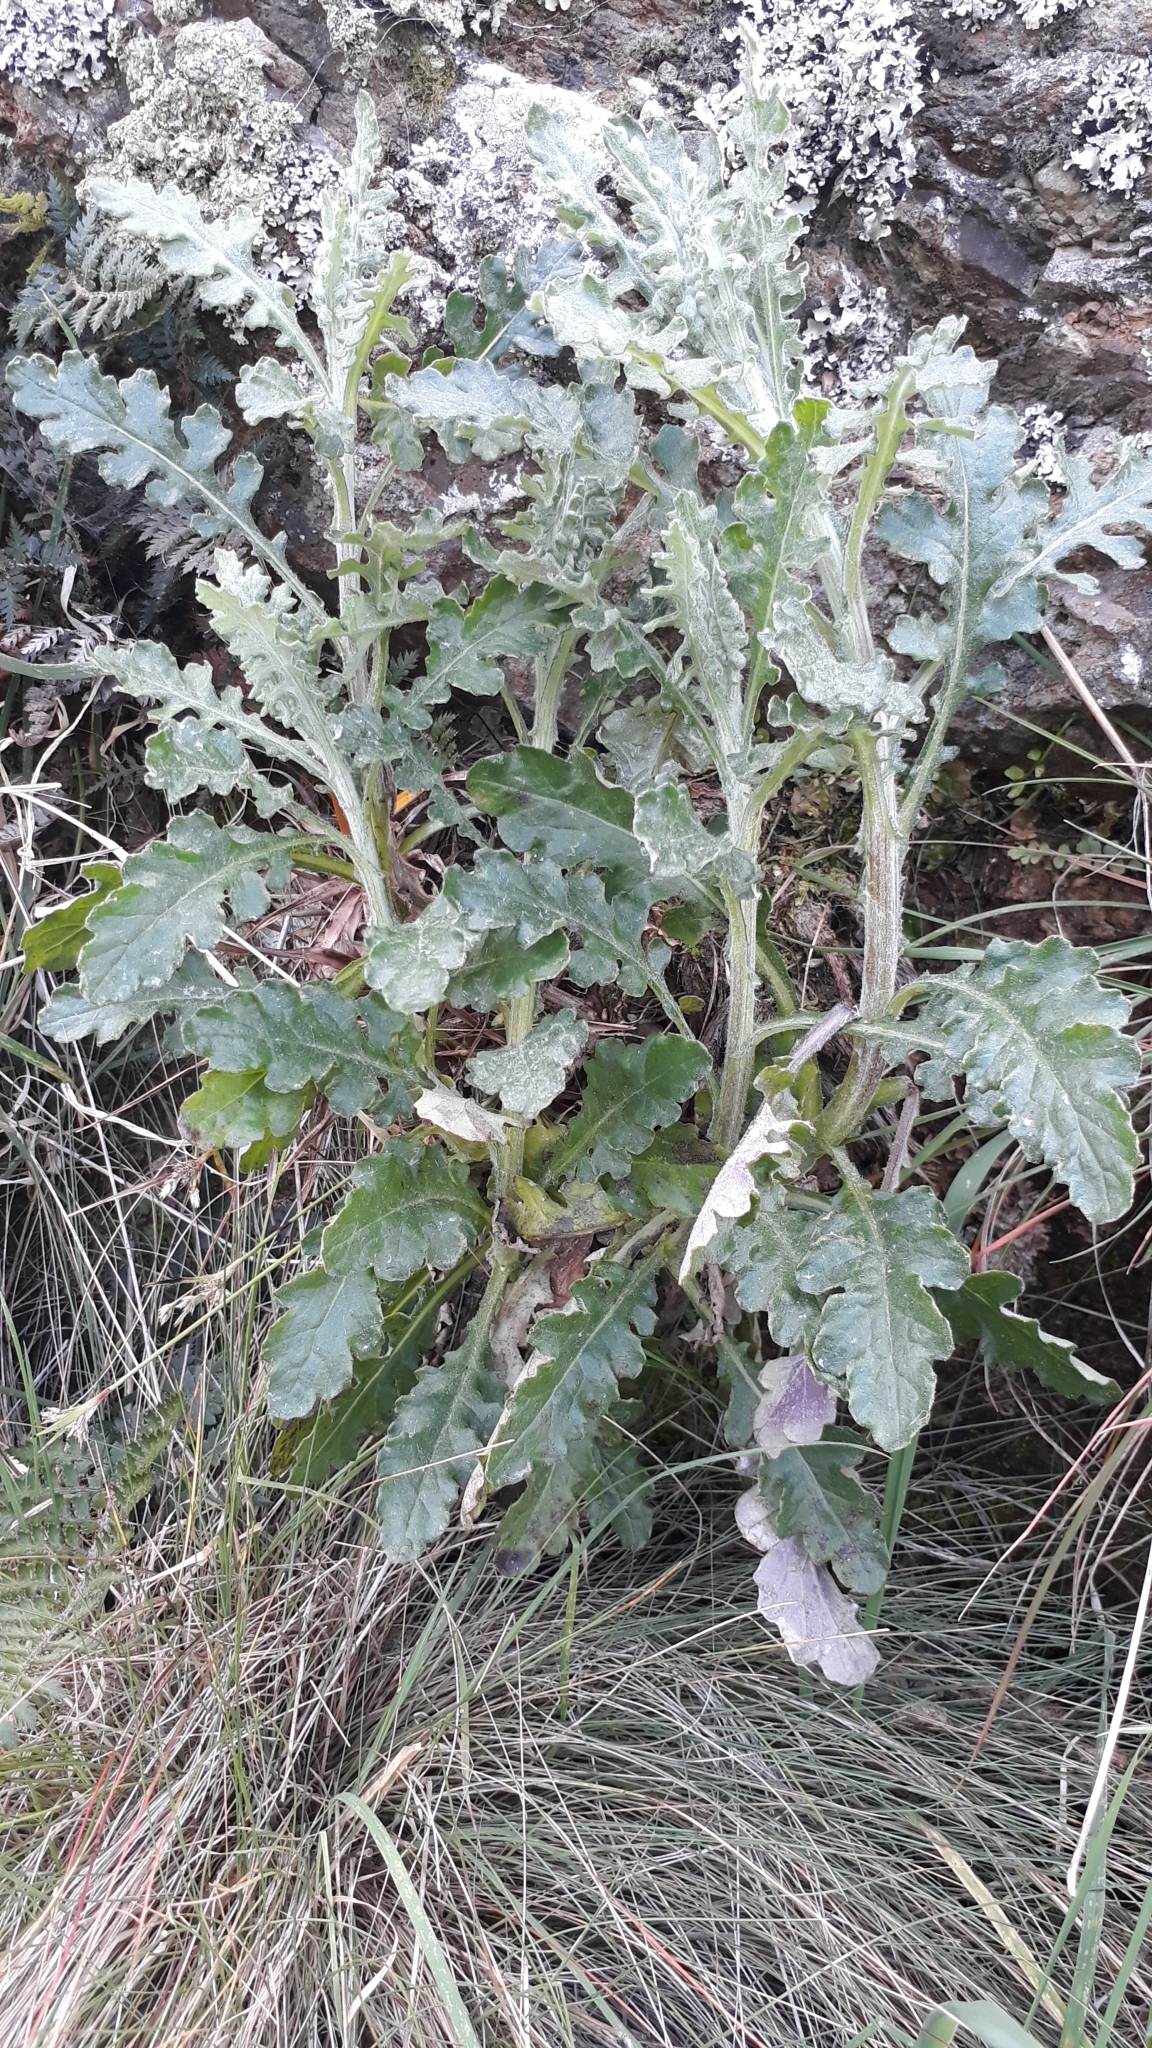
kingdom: Plantae
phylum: Tracheophyta
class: Magnoliopsida
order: Asterales
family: Asteraceae
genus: Senecio
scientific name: Senecio glomeratus
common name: Cutleaf burnweed
